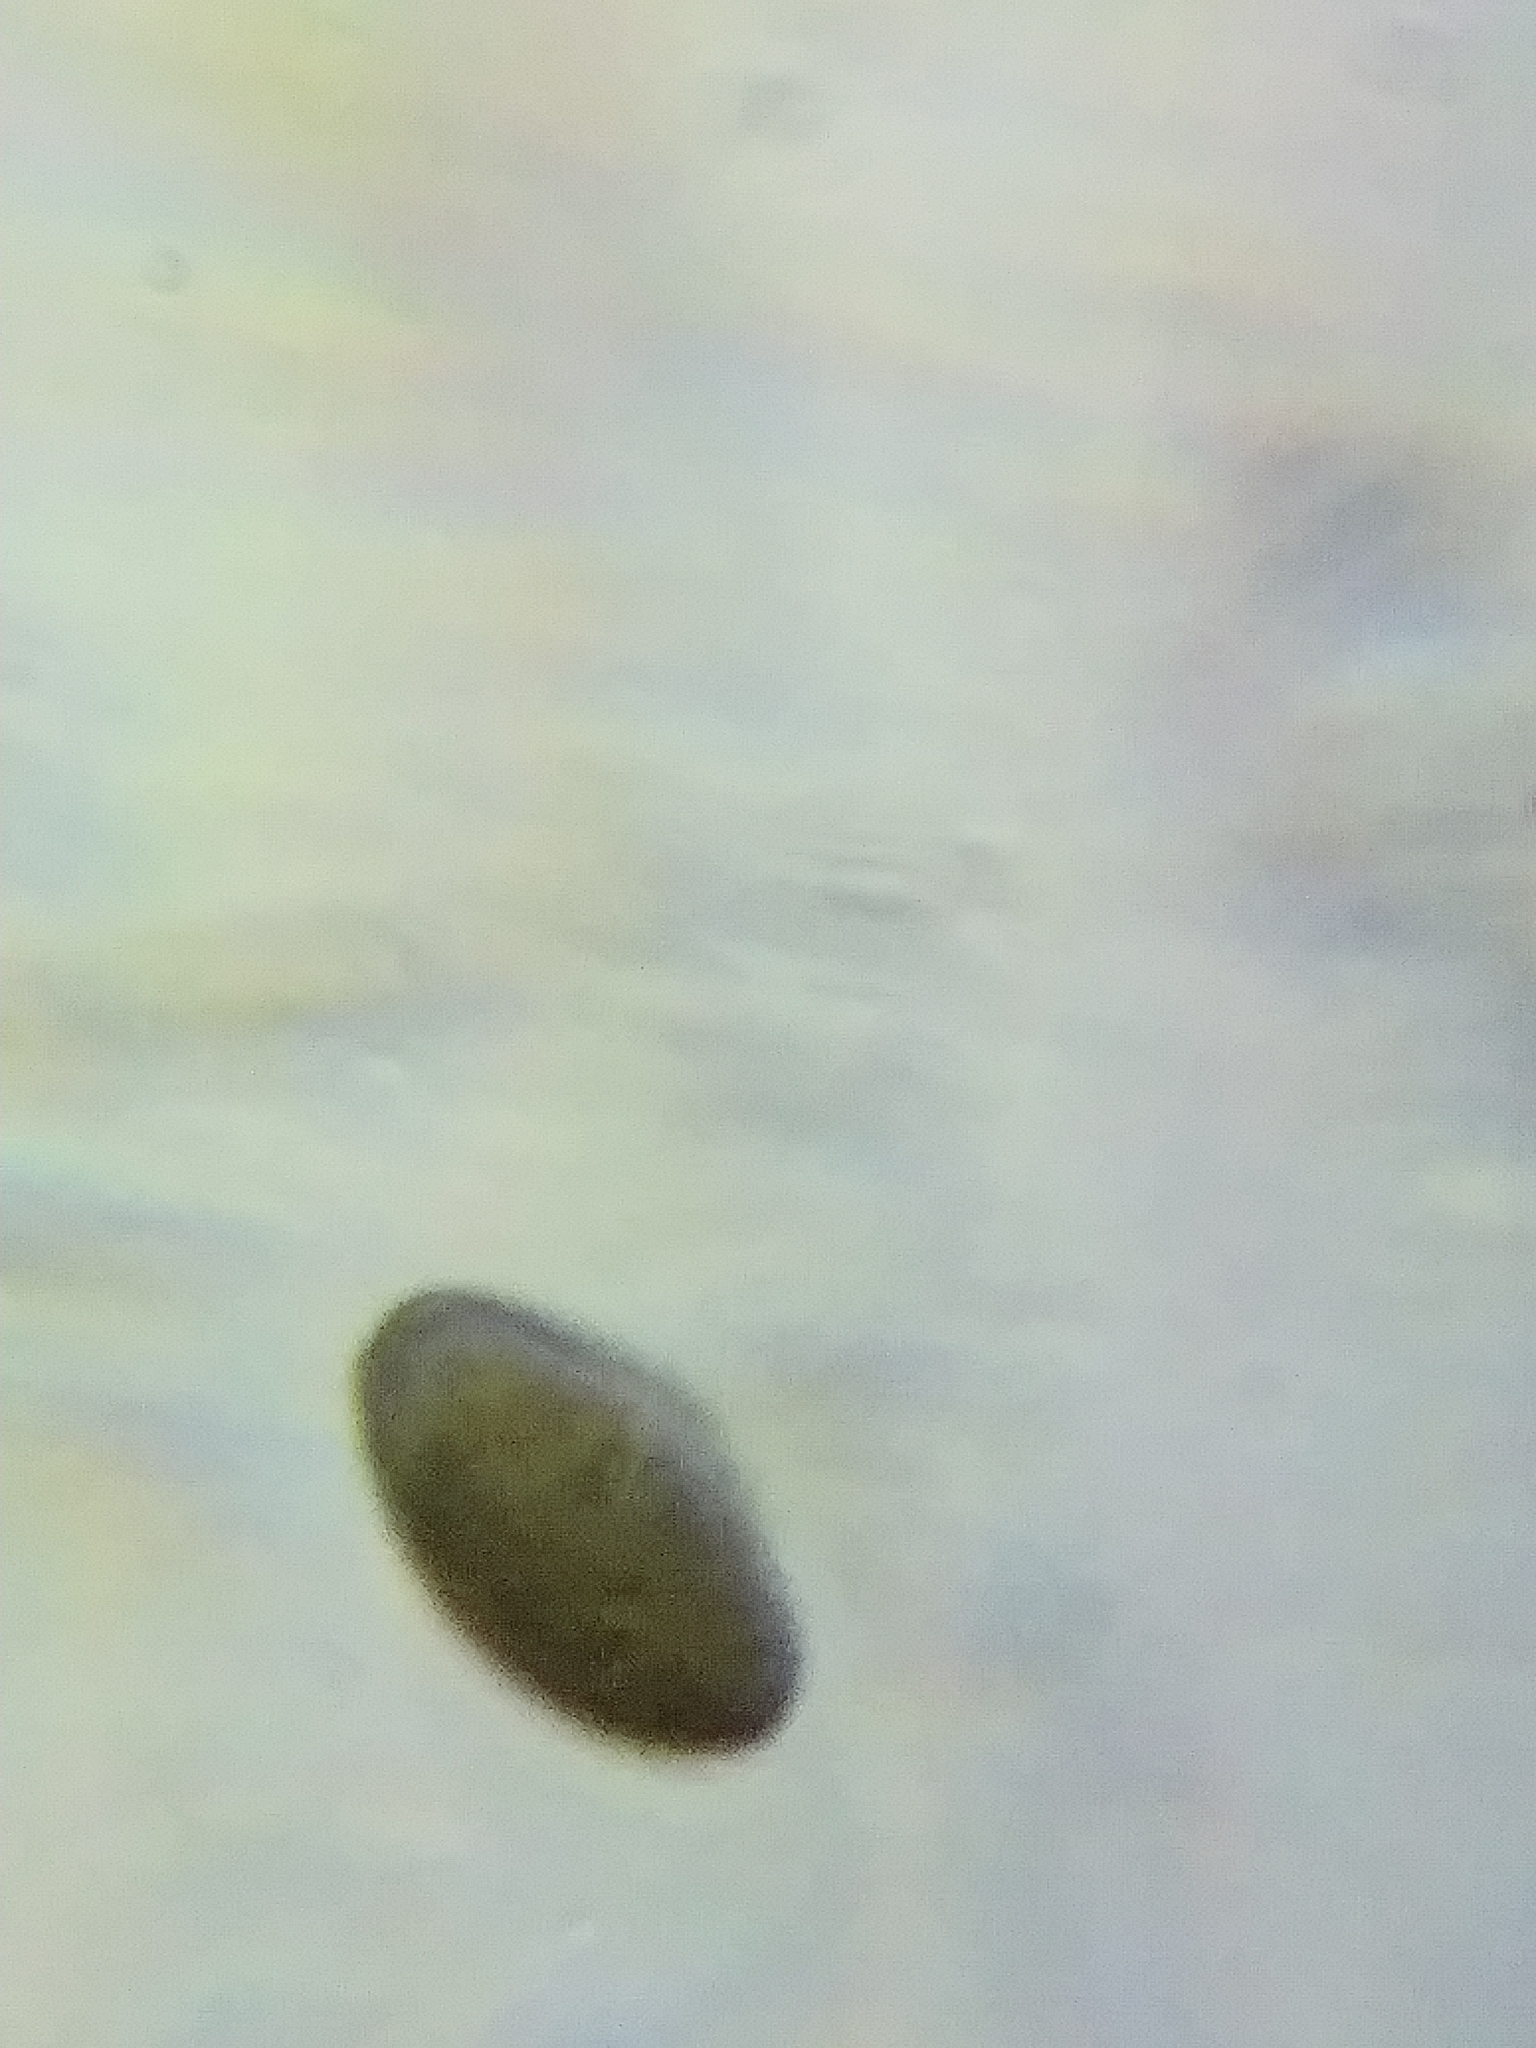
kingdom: Fungi
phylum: Ascomycota
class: Sordariomycetes
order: Xylariales
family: Hypoxylaceae
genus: Hypoxylon
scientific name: Hypoxylon fraxinophilum
